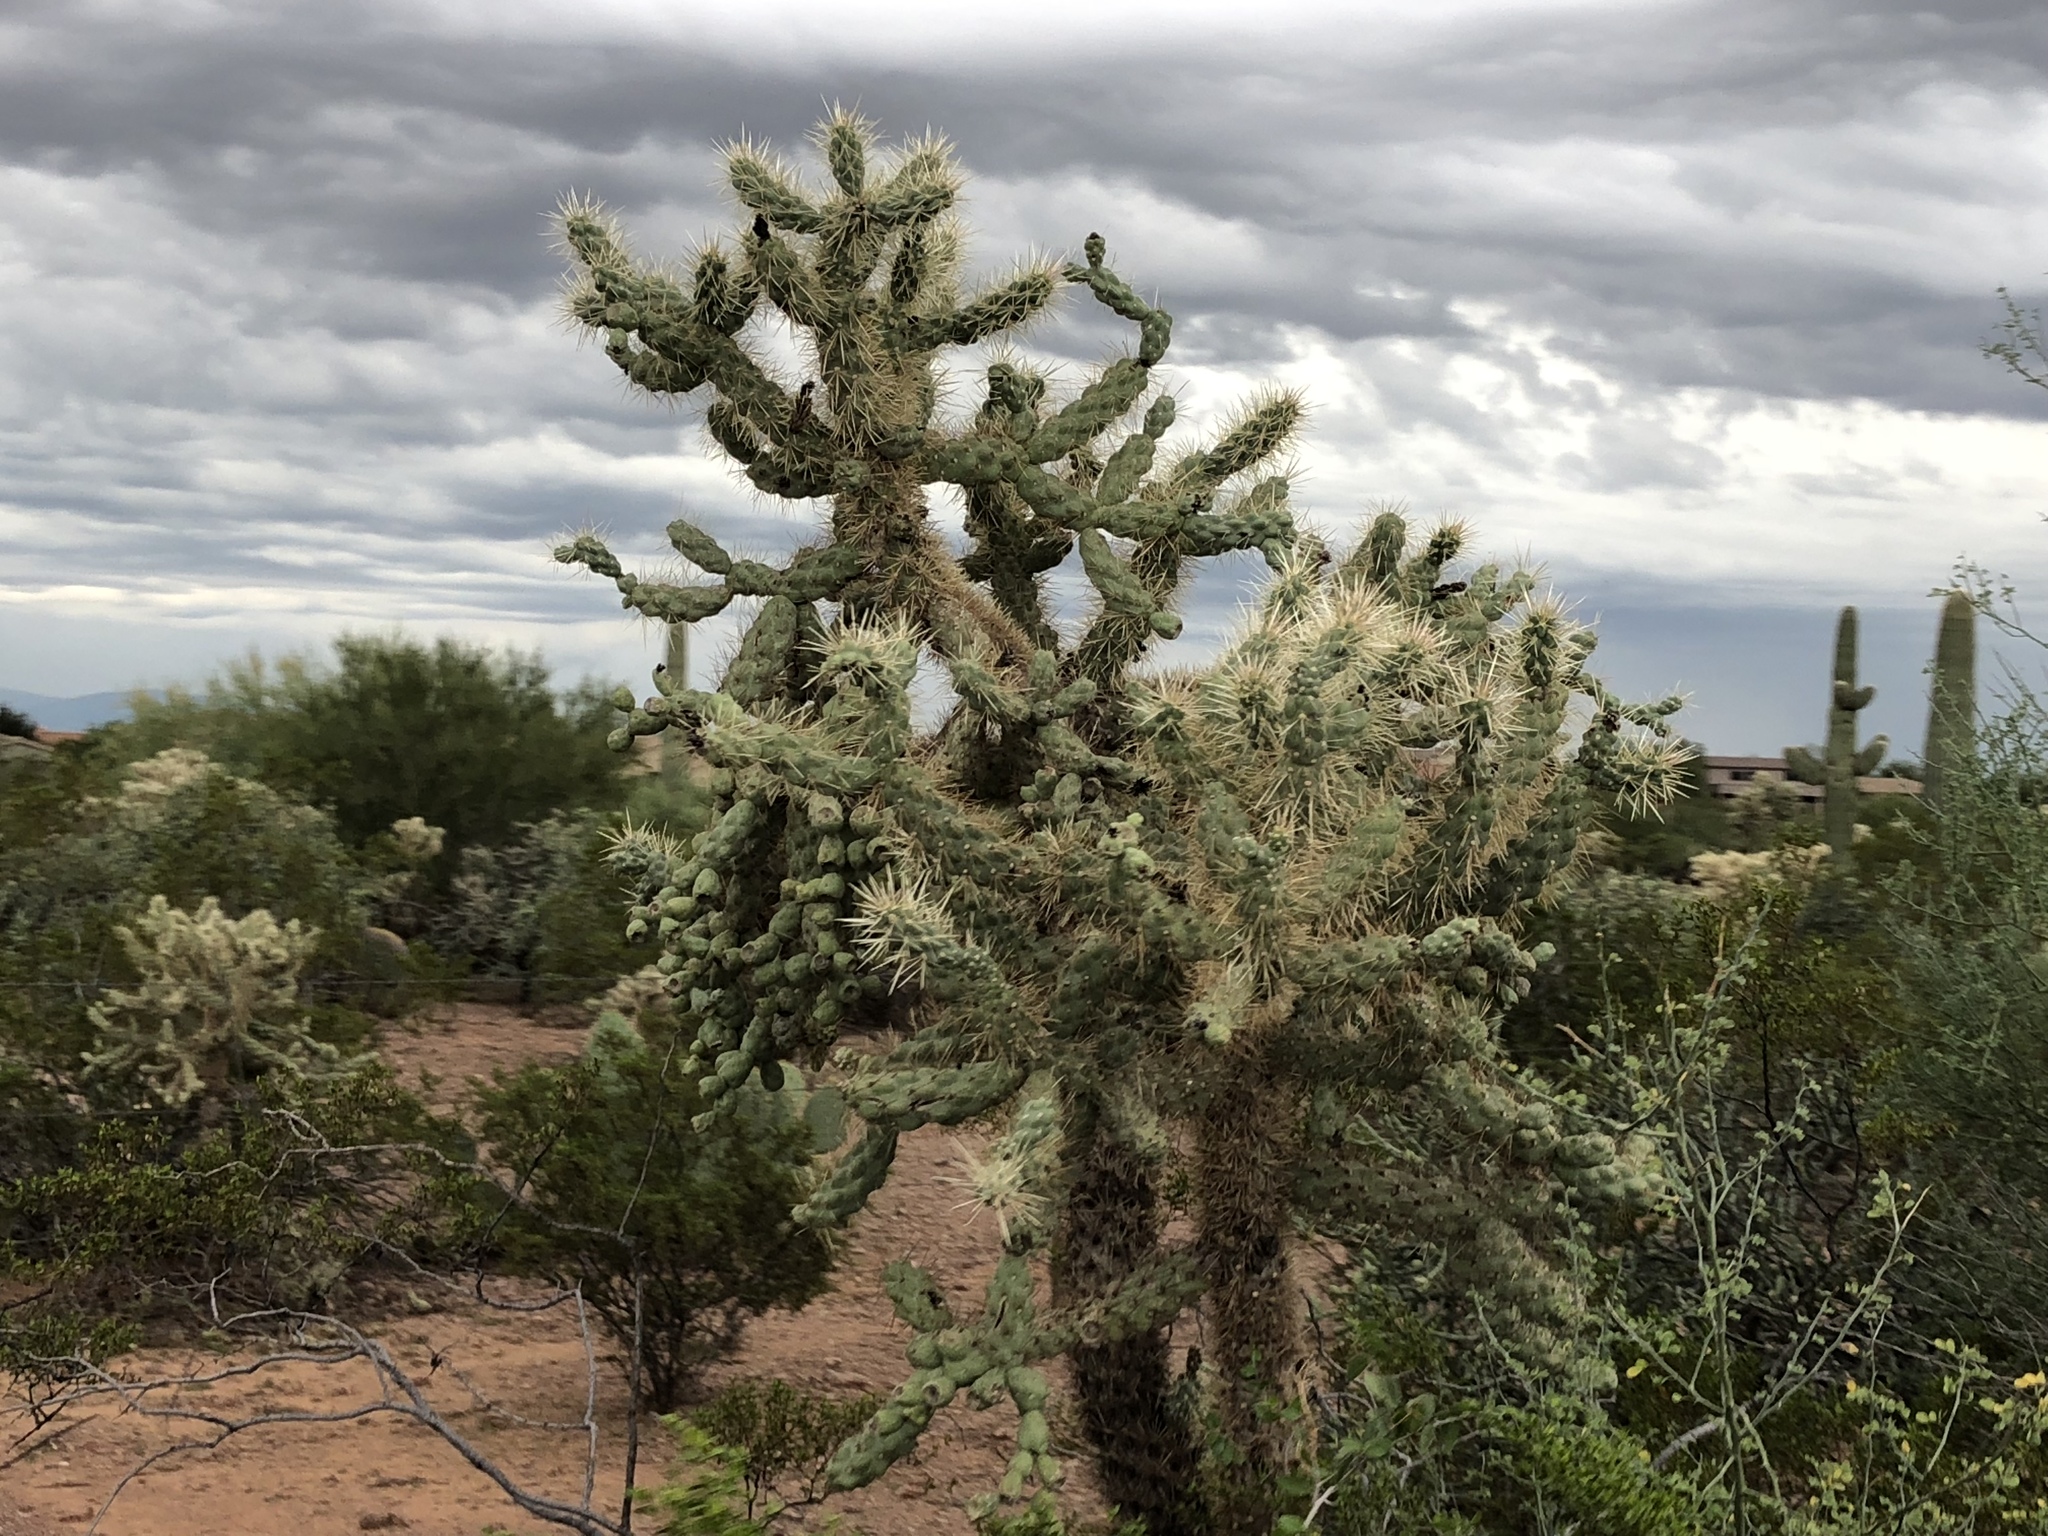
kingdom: Plantae
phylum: Tracheophyta
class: Magnoliopsida
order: Caryophyllales
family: Cactaceae
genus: Cylindropuntia
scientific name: Cylindropuntia fulgida
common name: Jumping cholla
